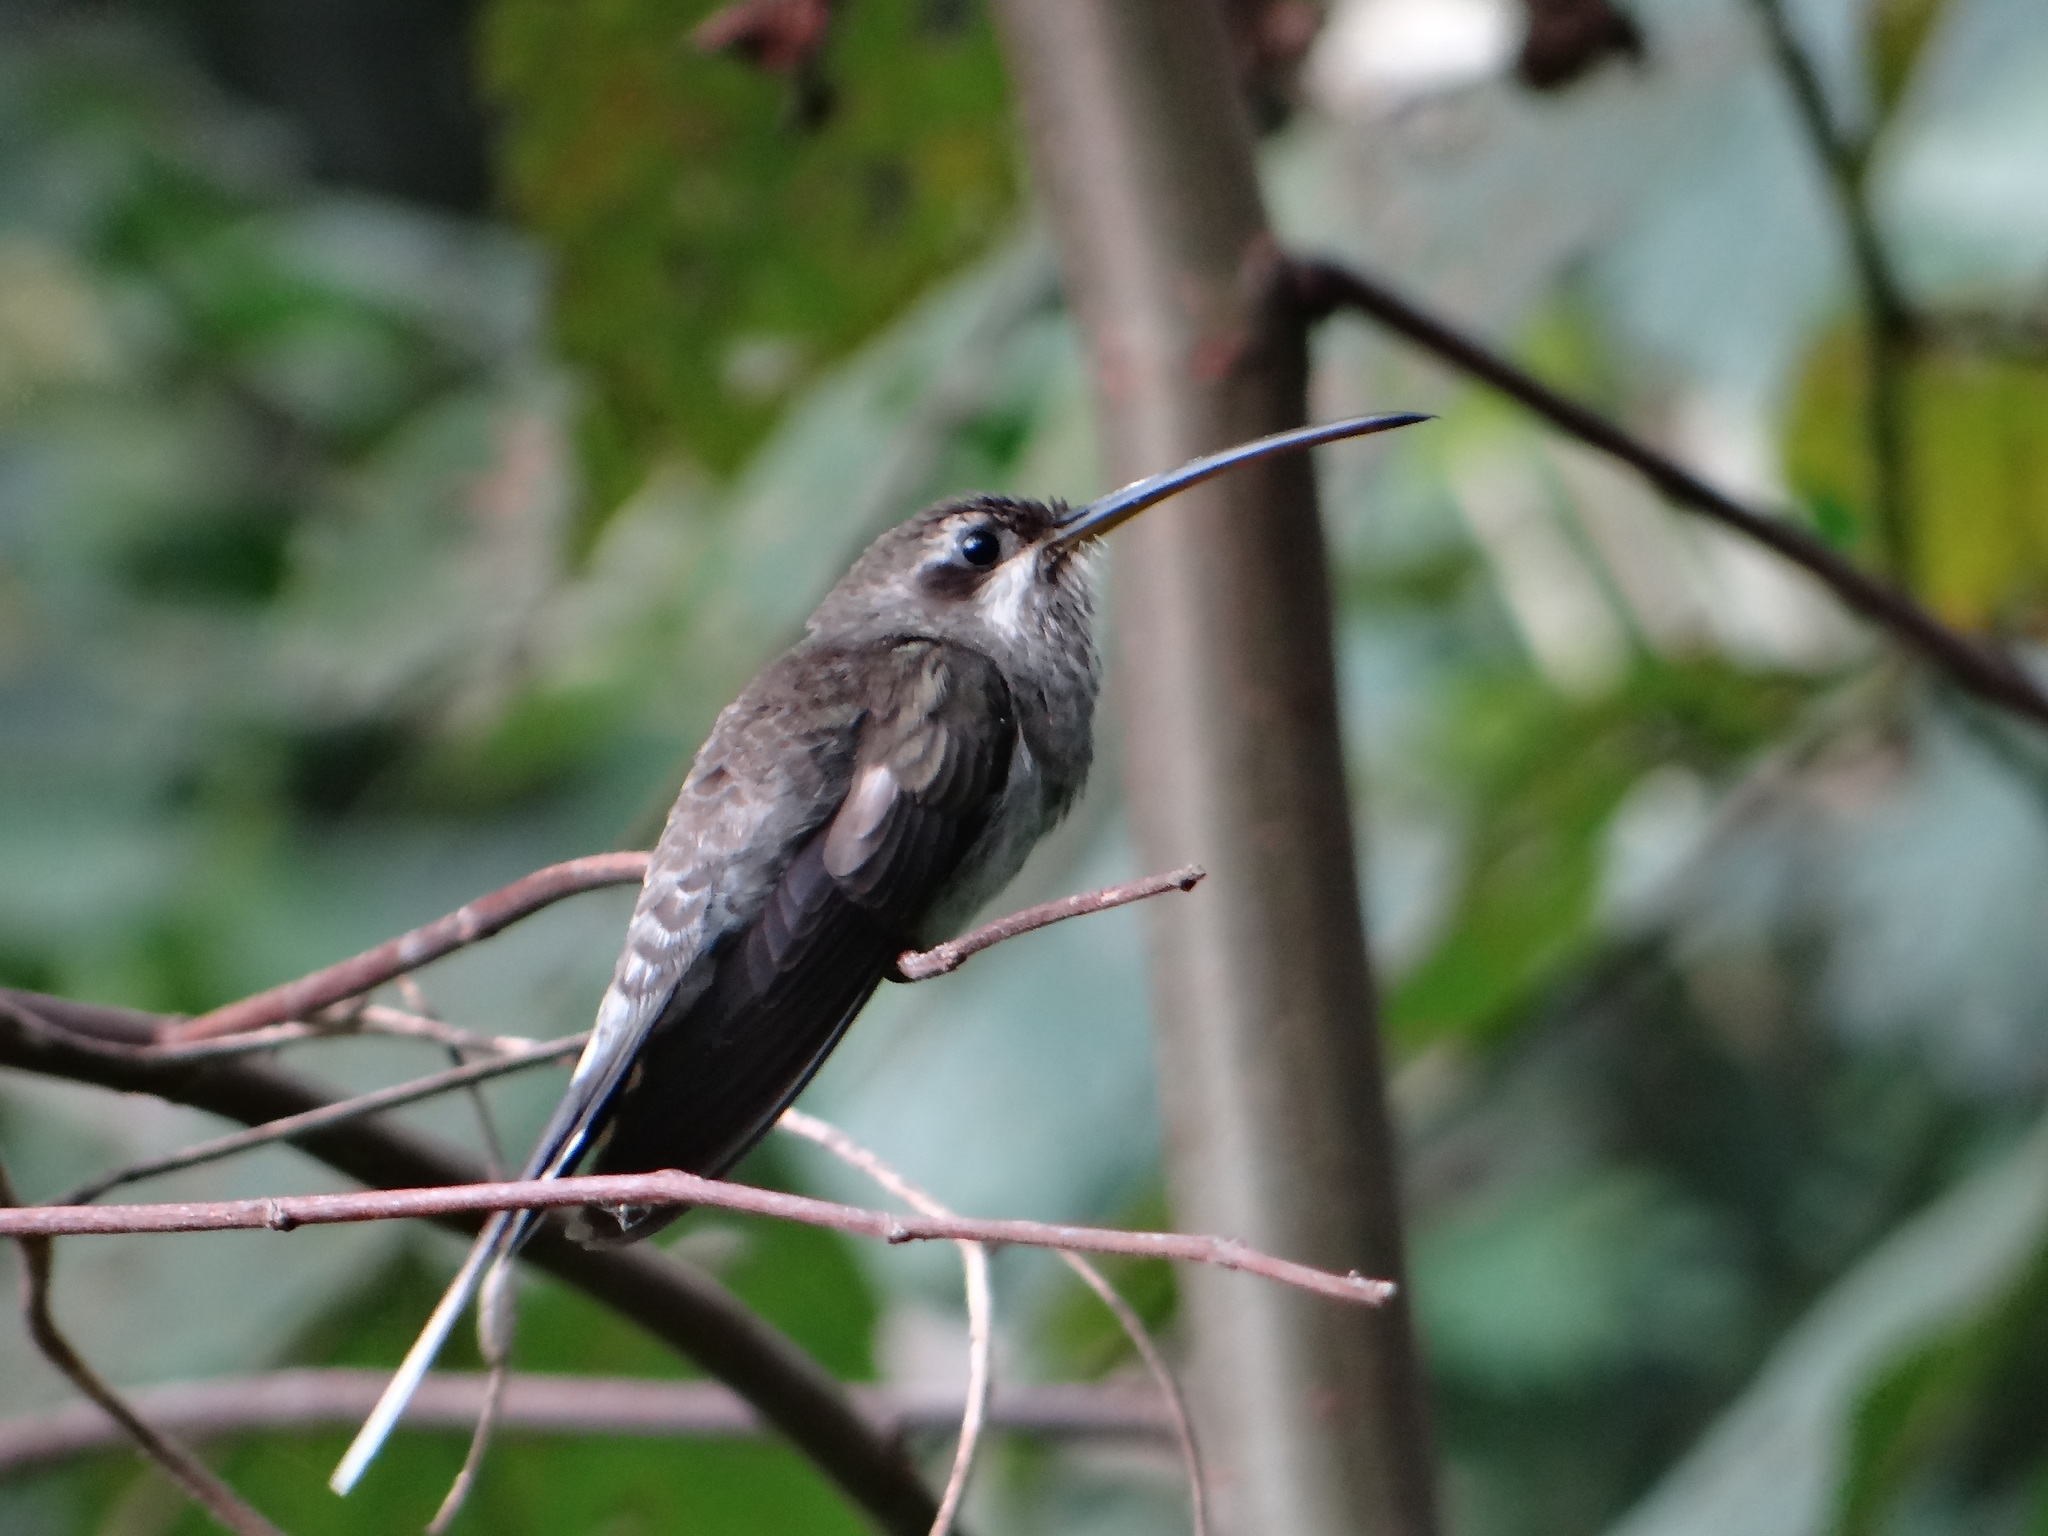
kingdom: Animalia
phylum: Chordata
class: Aves
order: Apodiformes
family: Trochilidae
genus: Phaethornis
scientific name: Phaethornis hispidus
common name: White-bearded hermit
